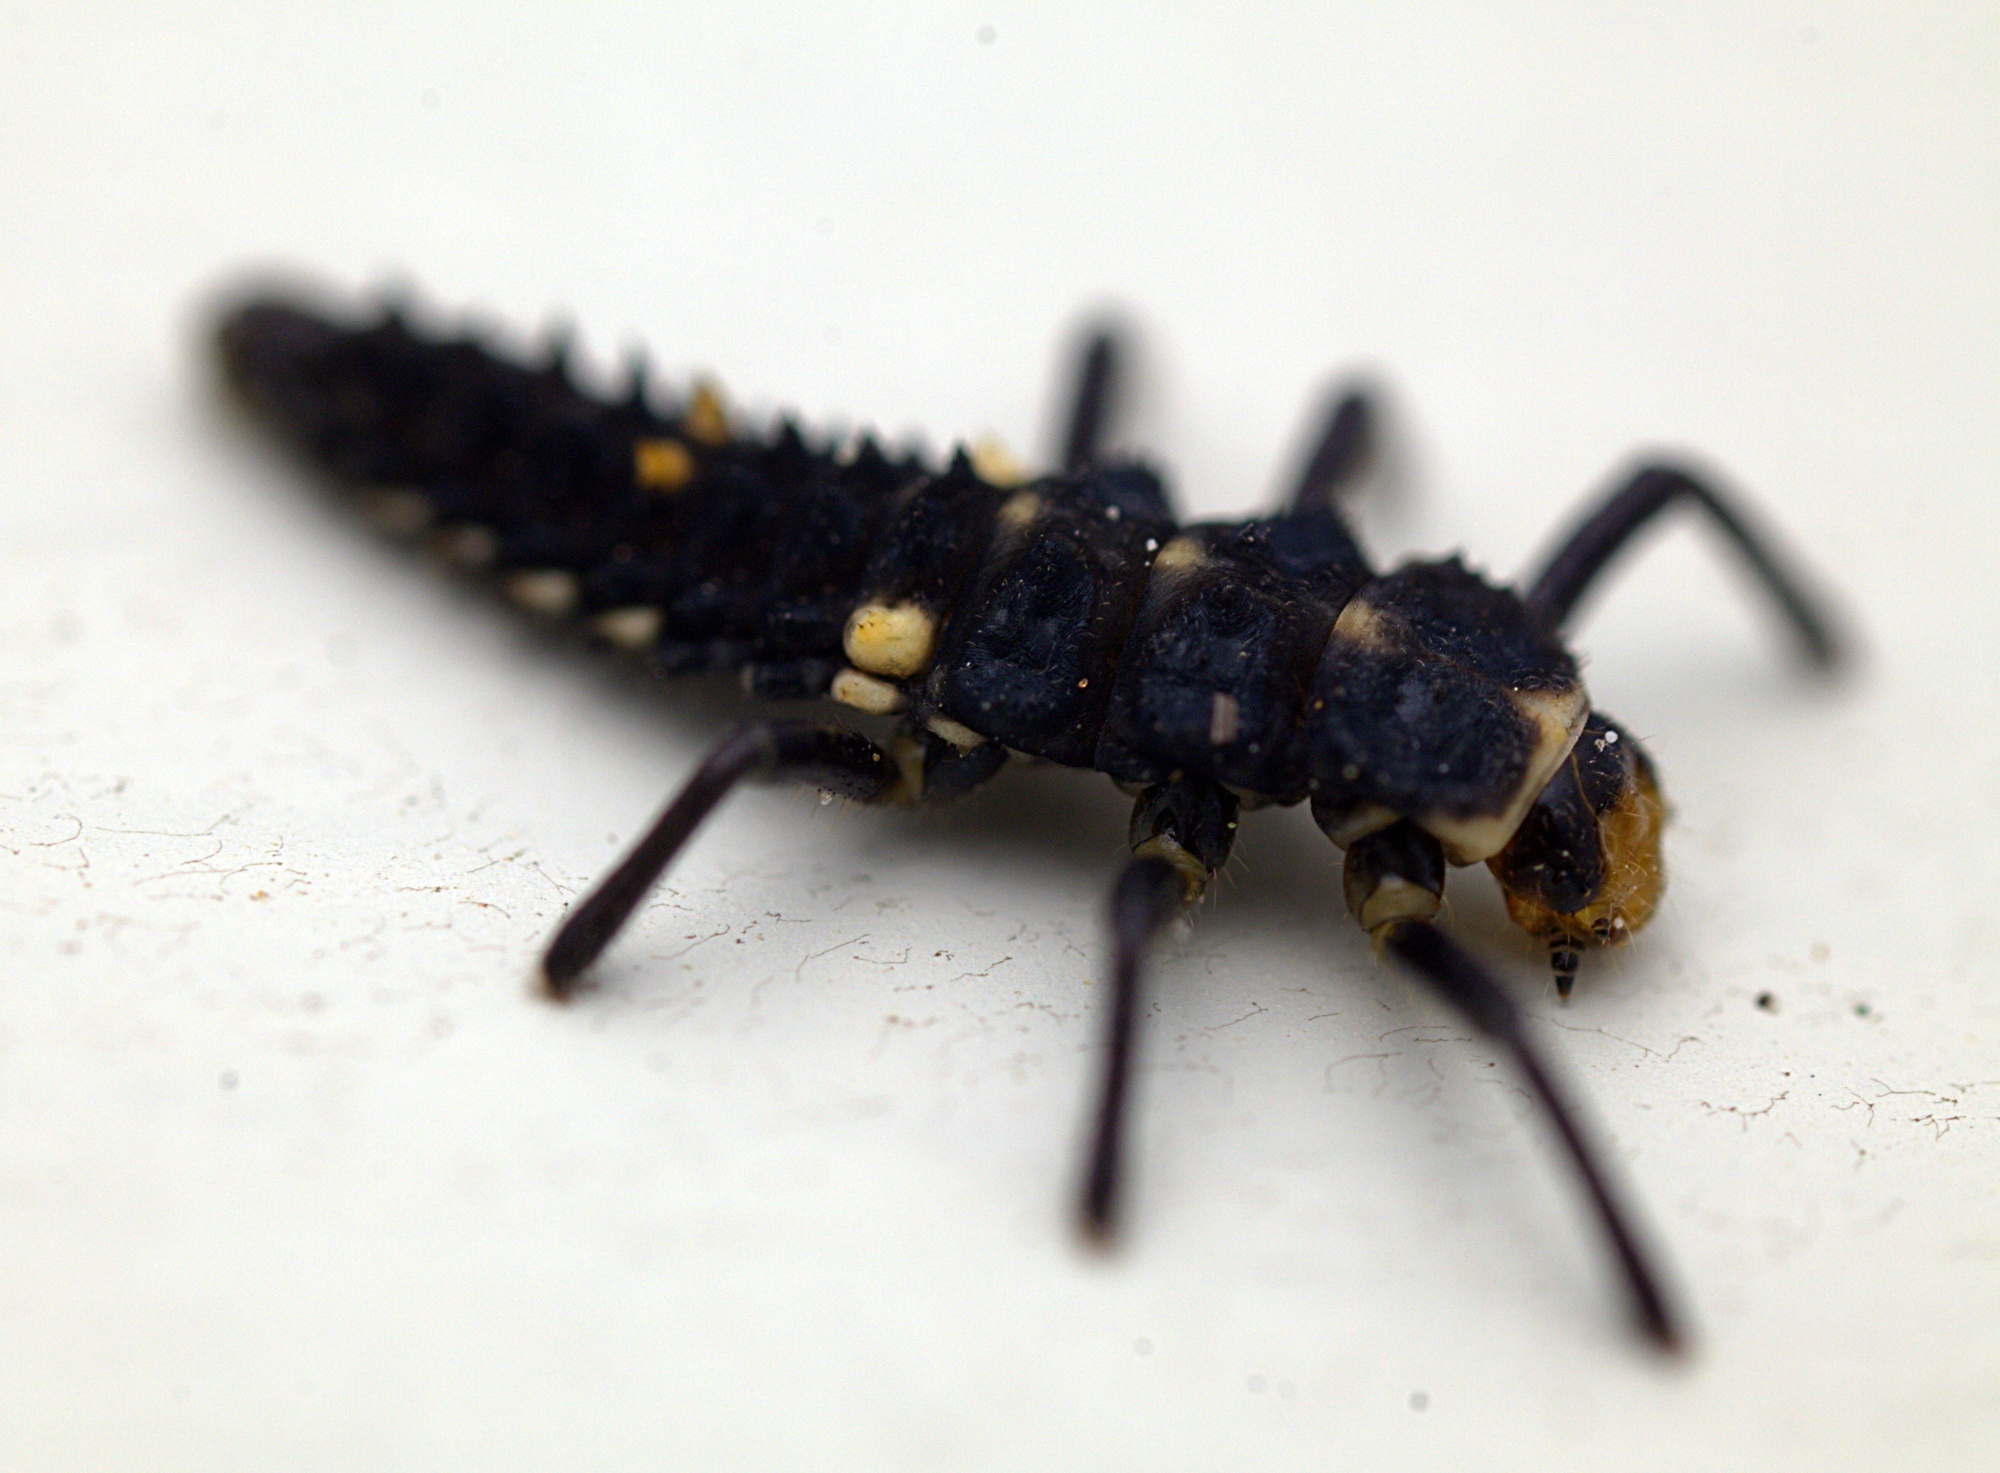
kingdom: Animalia
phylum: Arthropoda
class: Insecta
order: Coleoptera
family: Coccinellidae
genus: Cleobora
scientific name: Cleobora
